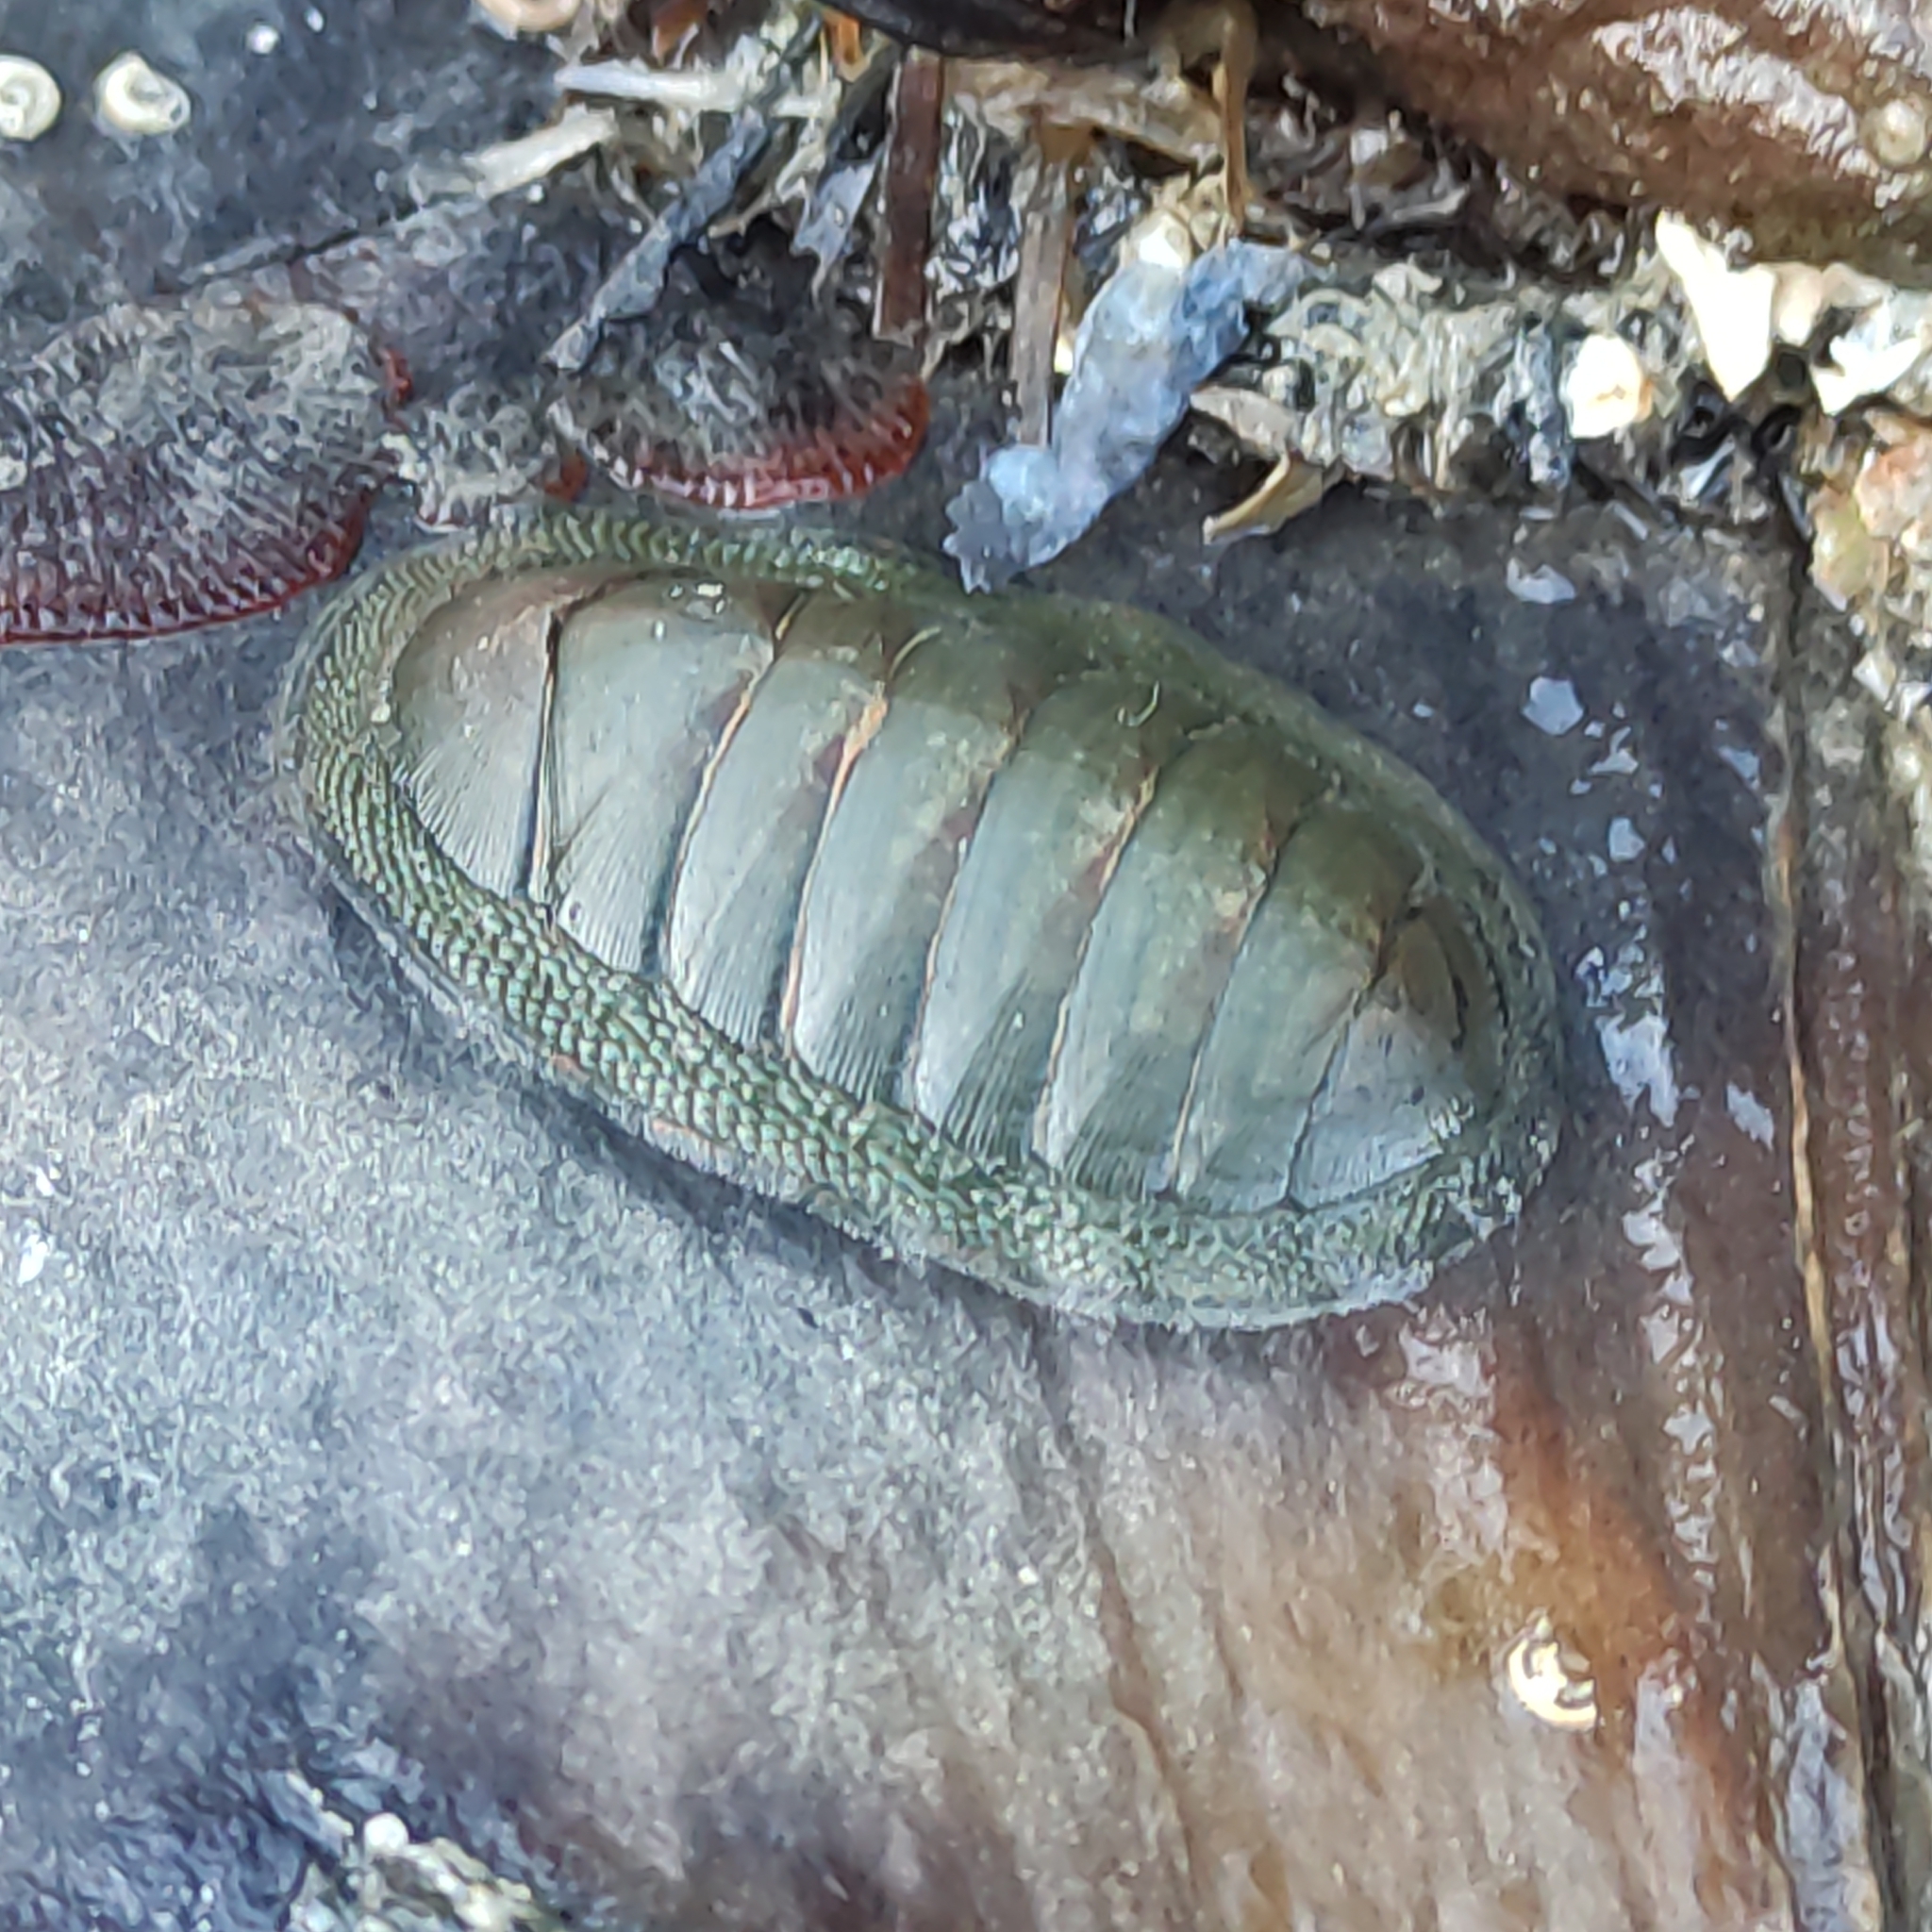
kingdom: Animalia
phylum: Mollusca
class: Polyplacophora
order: Chitonida
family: Chitonidae
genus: Chiton
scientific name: Chiton glaucus
